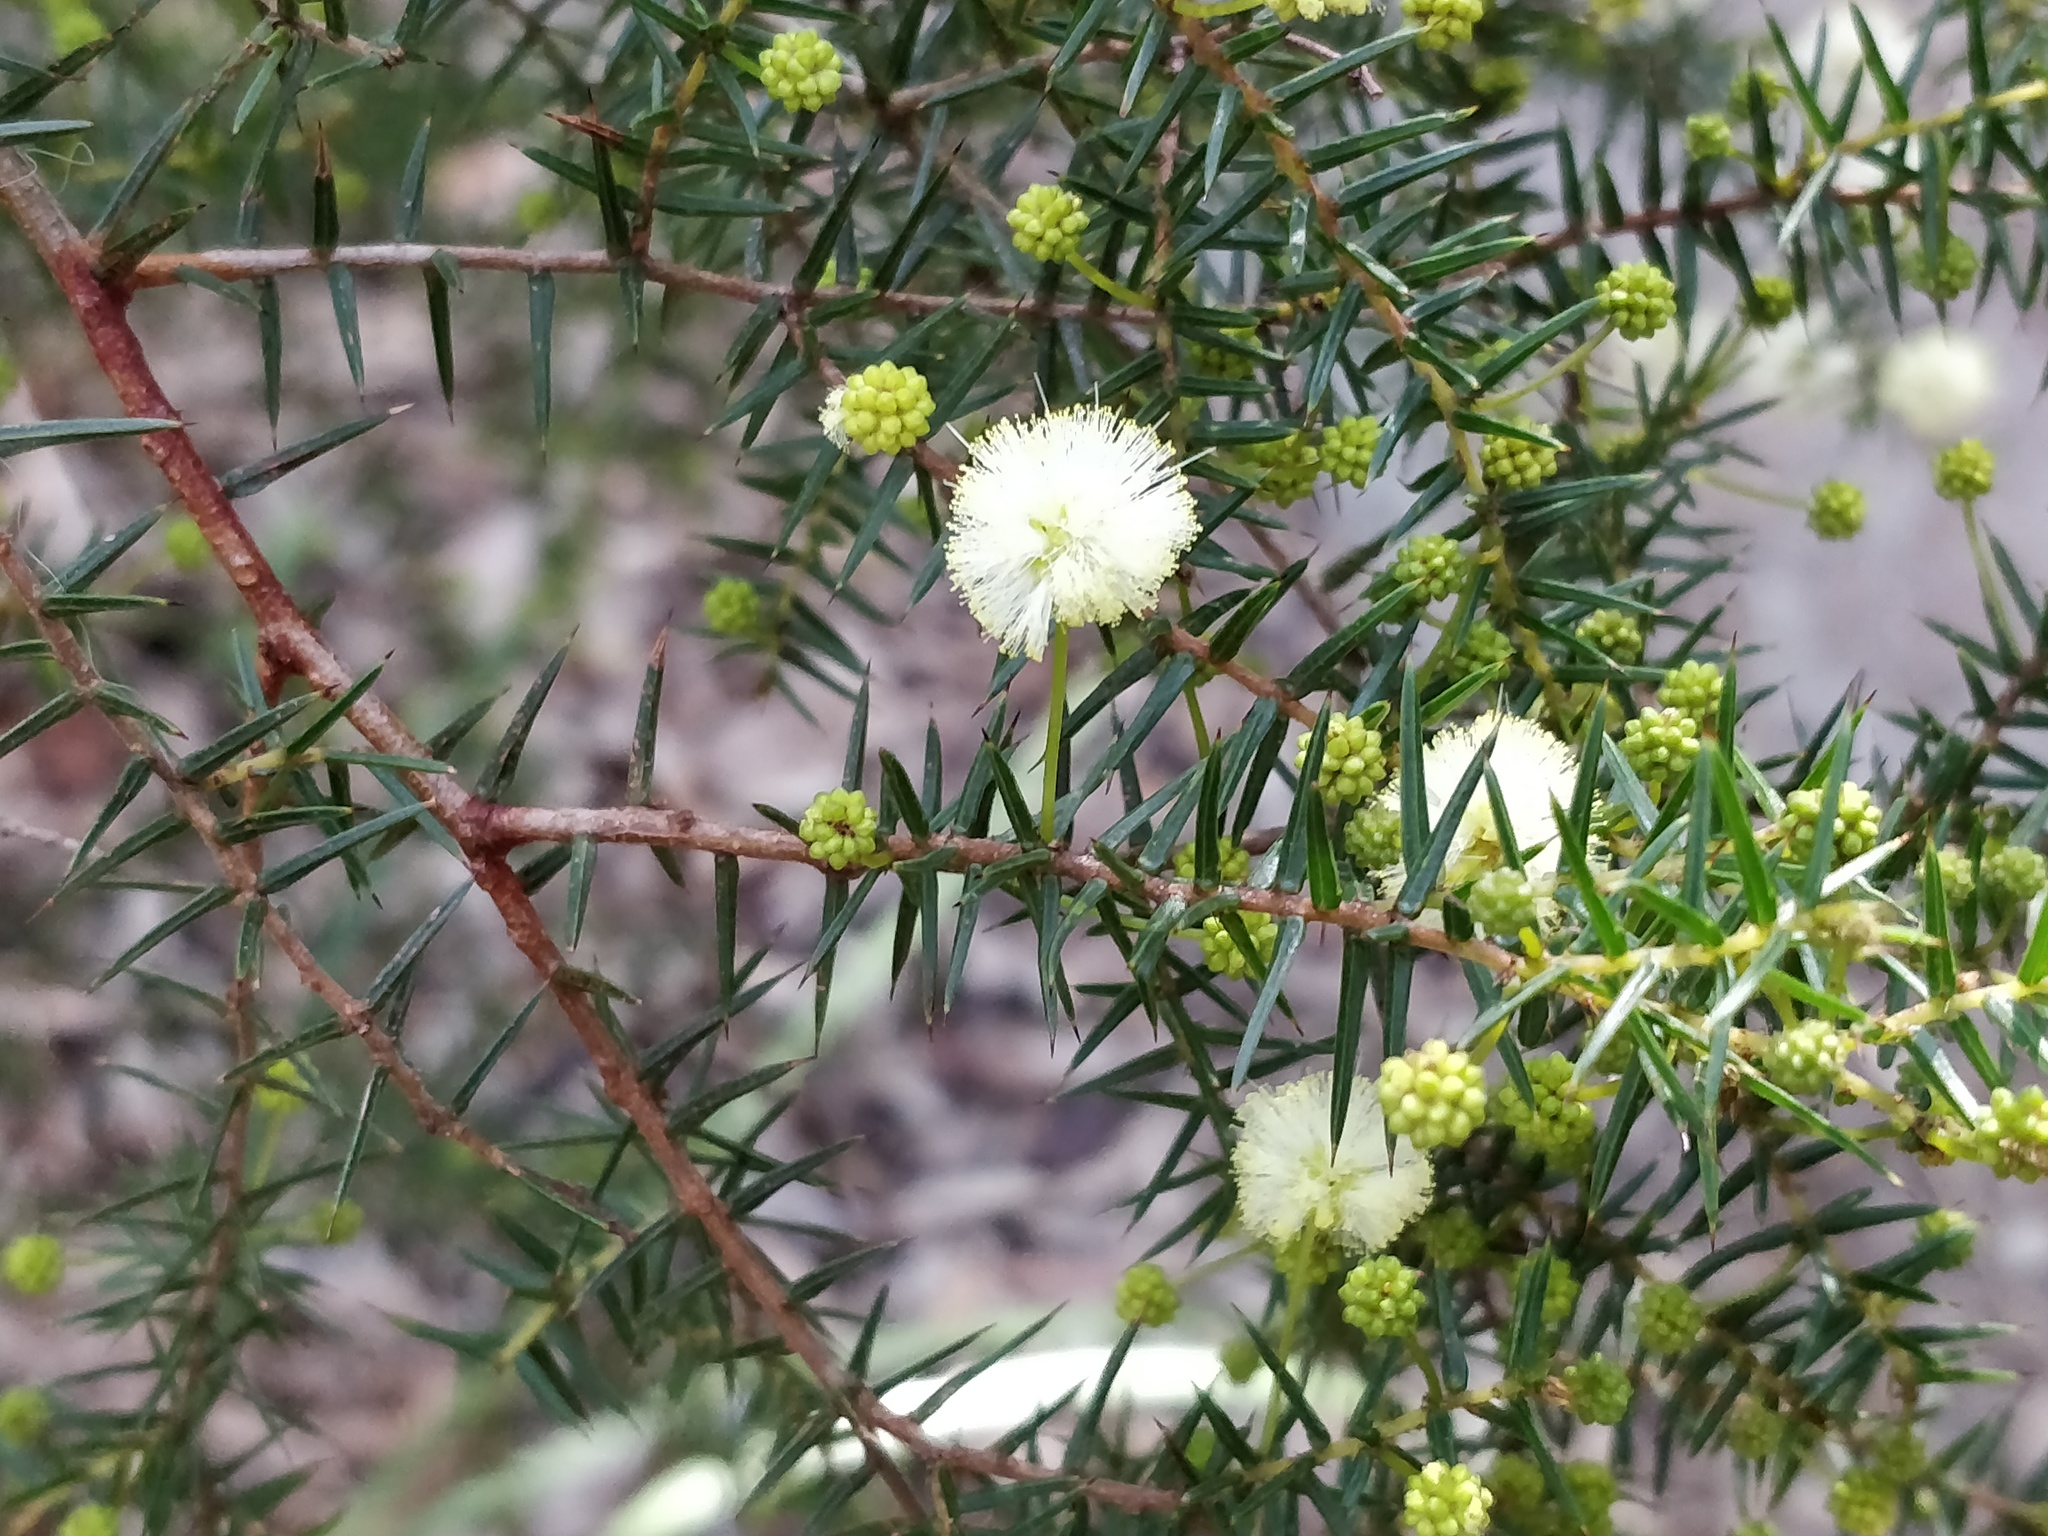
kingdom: Plantae
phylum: Tracheophyta
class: Magnoliopsida
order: Fabales
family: Fabaceae
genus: Acacia
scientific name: Acacia ulicifolia
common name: Juniper wattle
